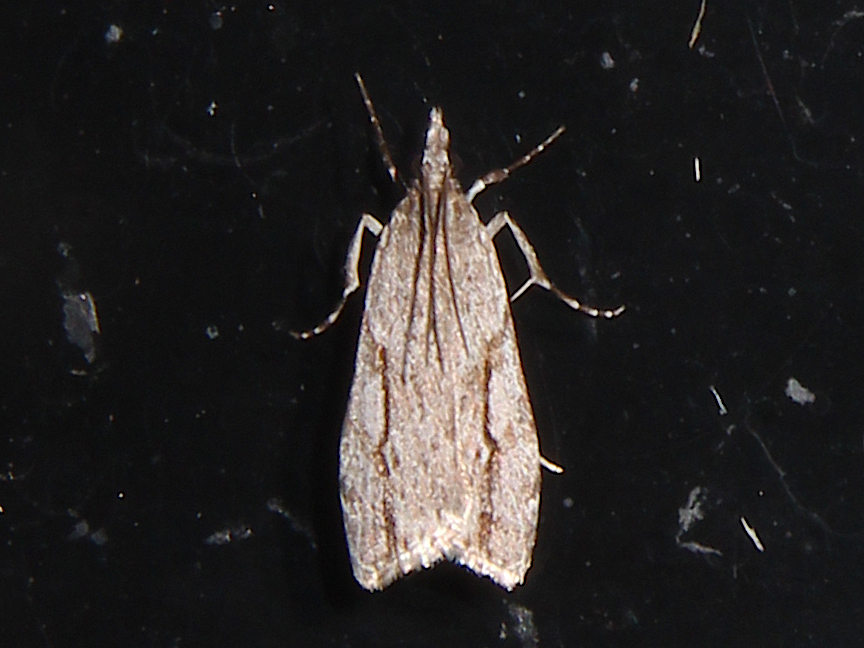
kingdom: Animalia
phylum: Arthropoda
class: Insecta
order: Lepidoptera
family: Crambidae
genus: Eudonia
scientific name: Eudonia bisinualis
